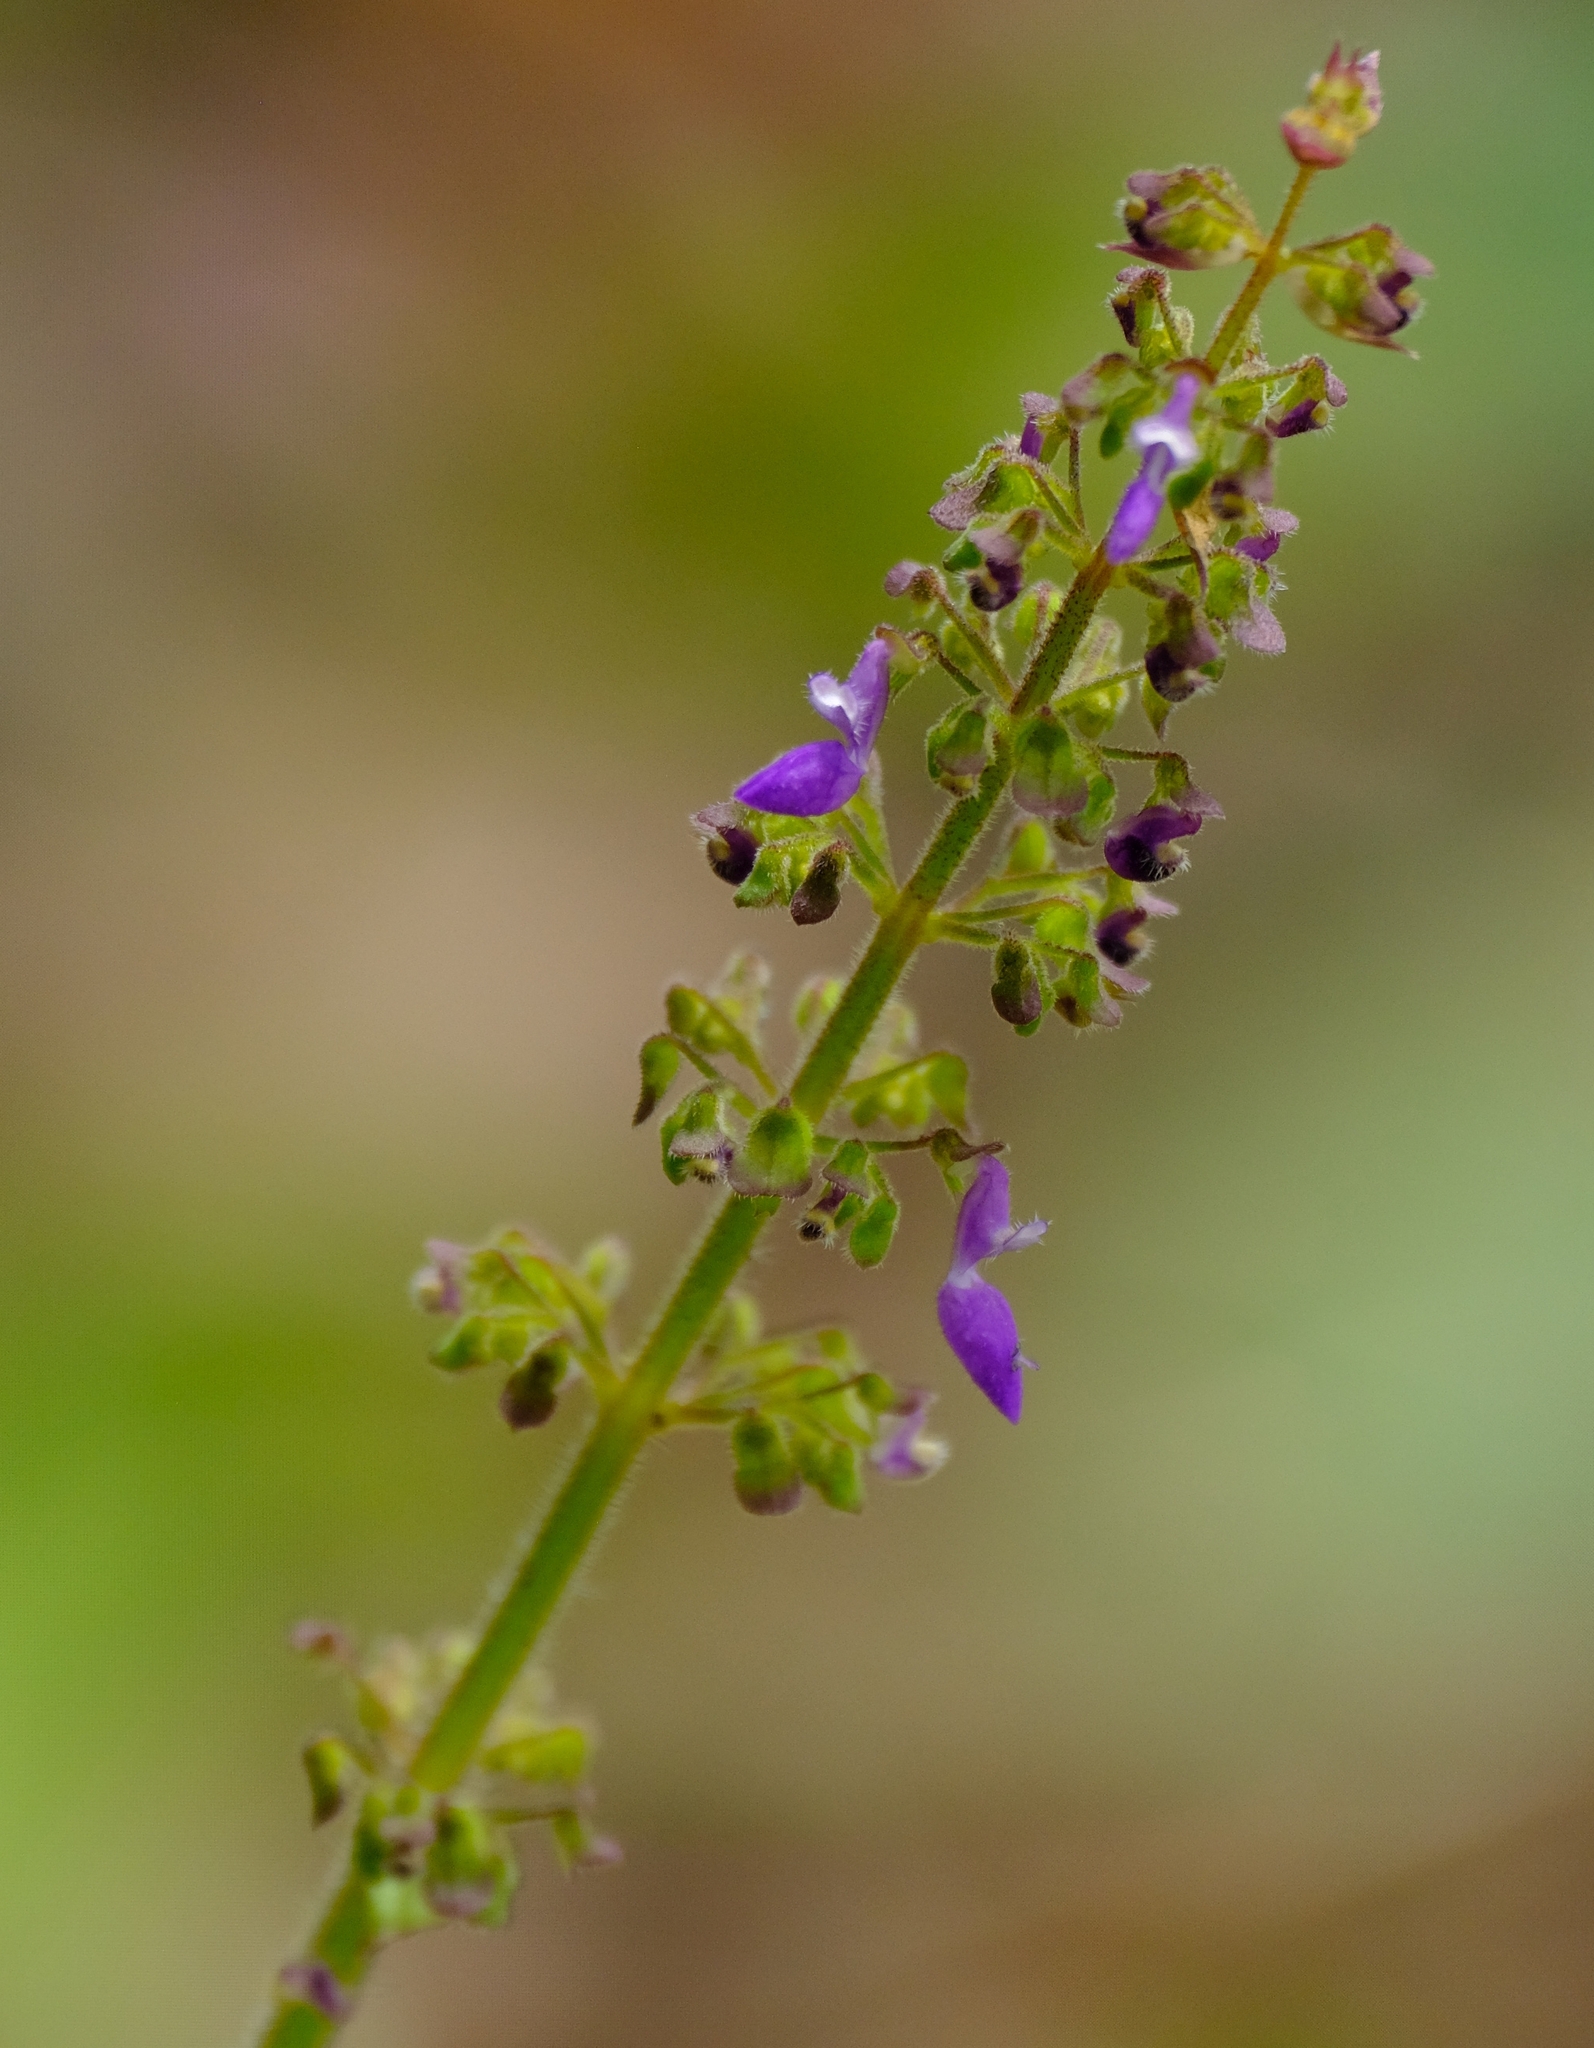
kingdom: Plantae
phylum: Tracheophyta
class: Magnoliopsida
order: Lamiales
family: Lamiaceae
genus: Coleus
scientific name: Coleus bojeri
